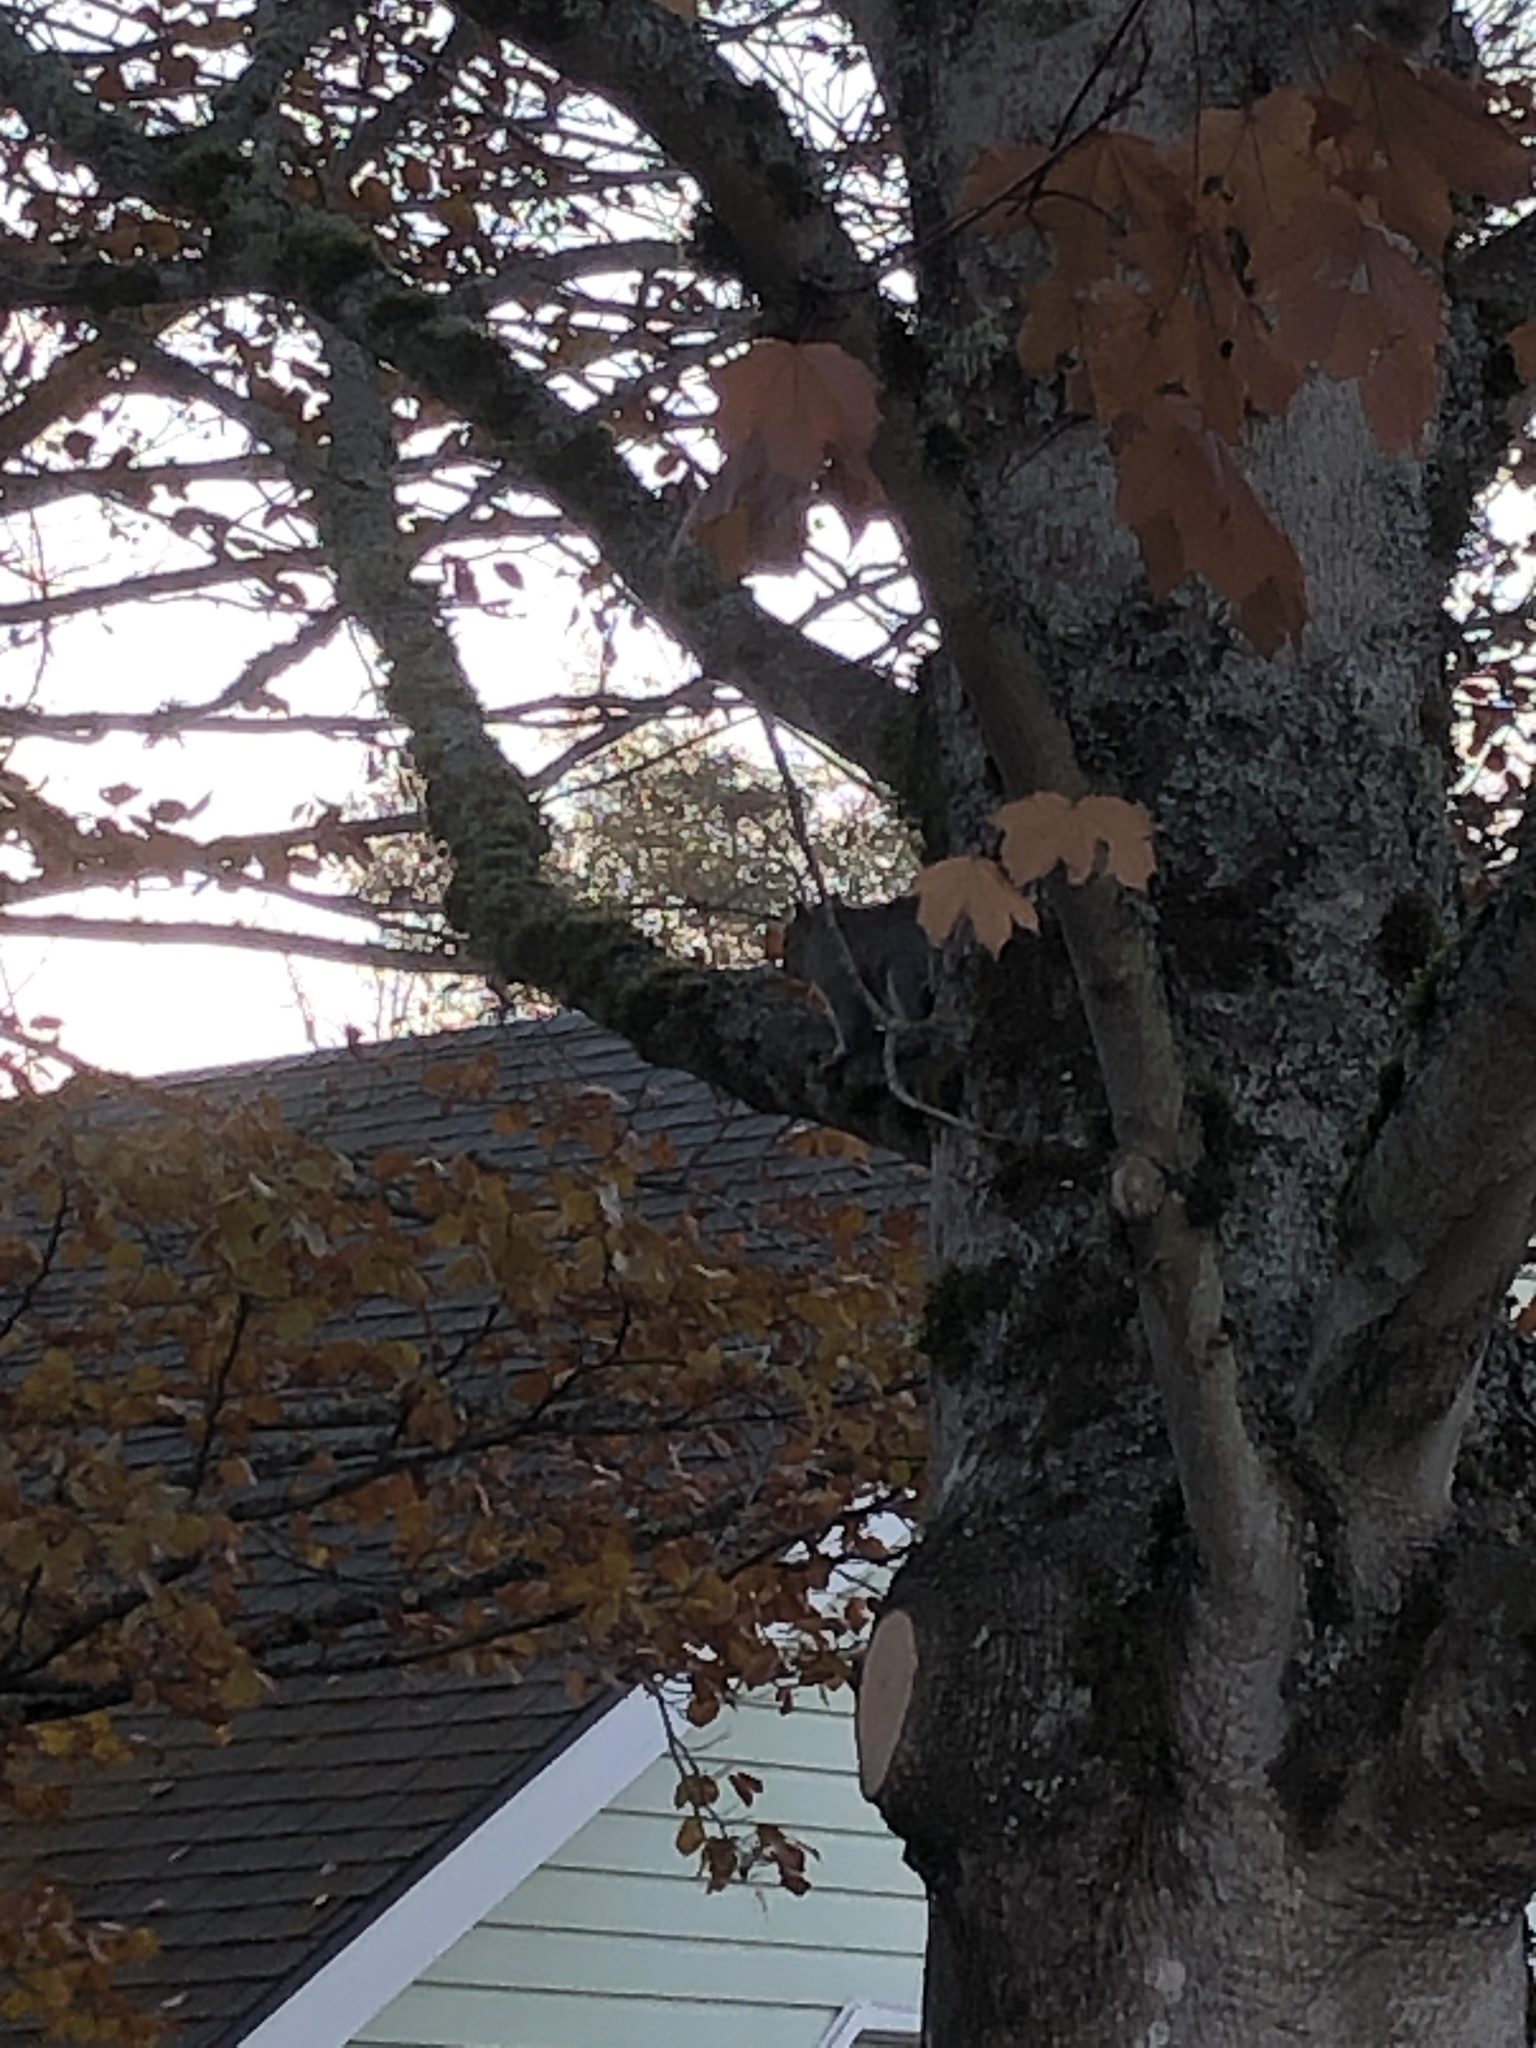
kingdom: Animalia
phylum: Chordata
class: Mammalia
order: Rodentia
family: Sciuridae
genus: Sciurus
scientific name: Sciurus carolinensis
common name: Eastern gray squirrel
